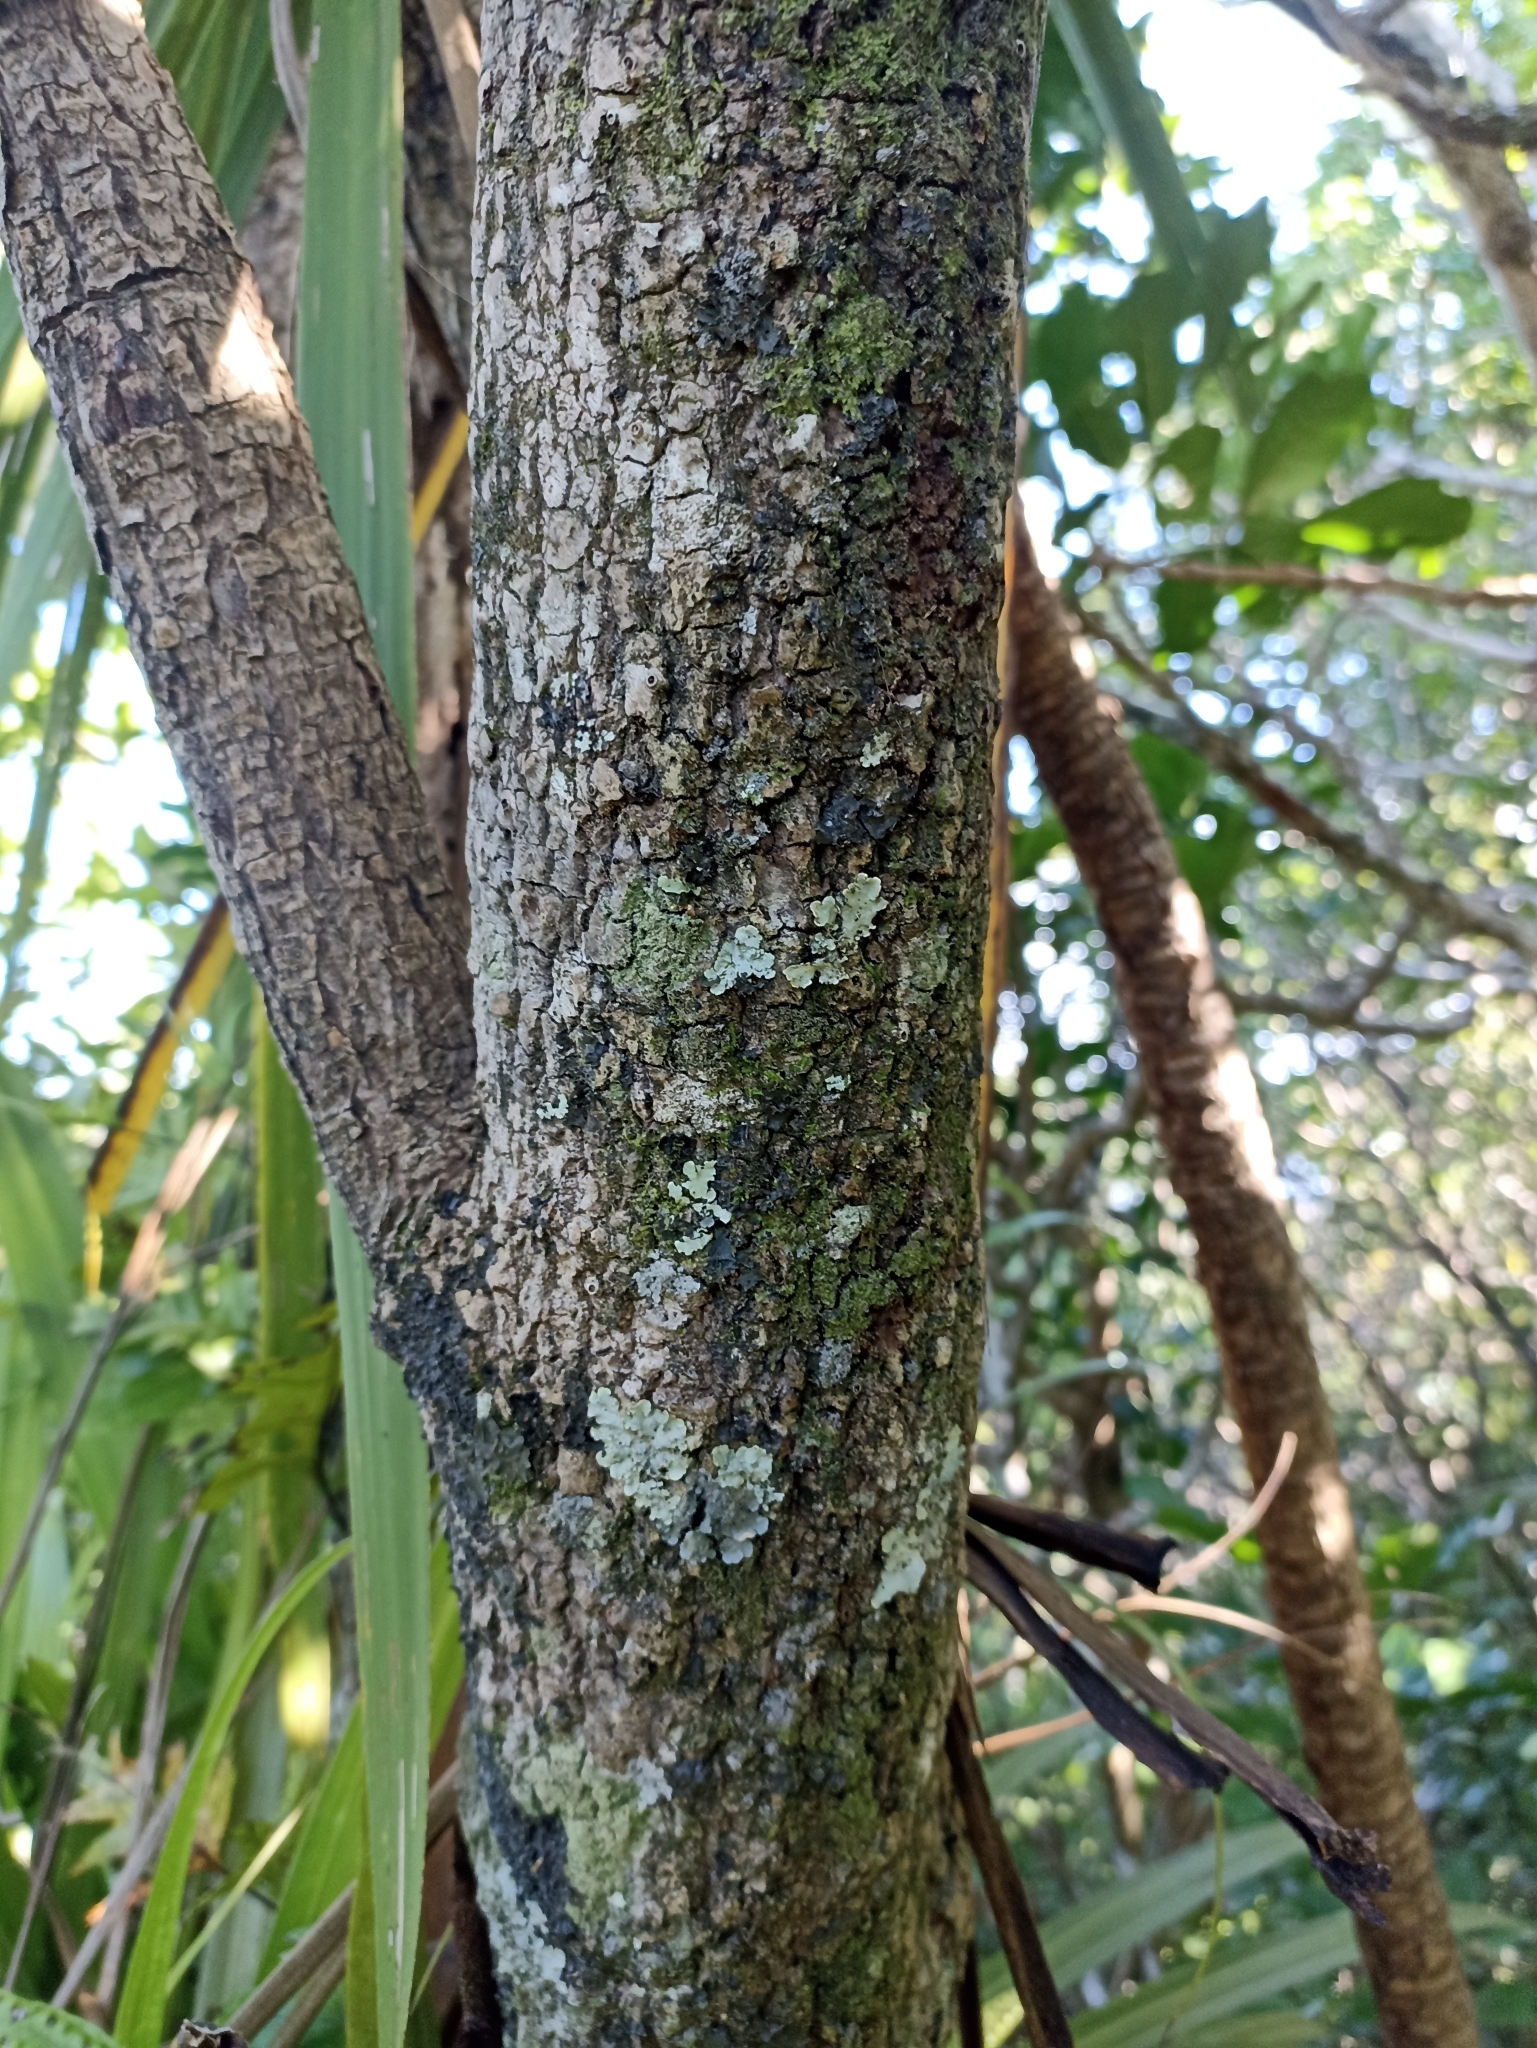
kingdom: Plantae
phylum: Tracheophyta
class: Liliopsida
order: Asparagales
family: Asparagaceae
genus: Cordyline
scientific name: Cordyline australis
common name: Cabbage-palm
